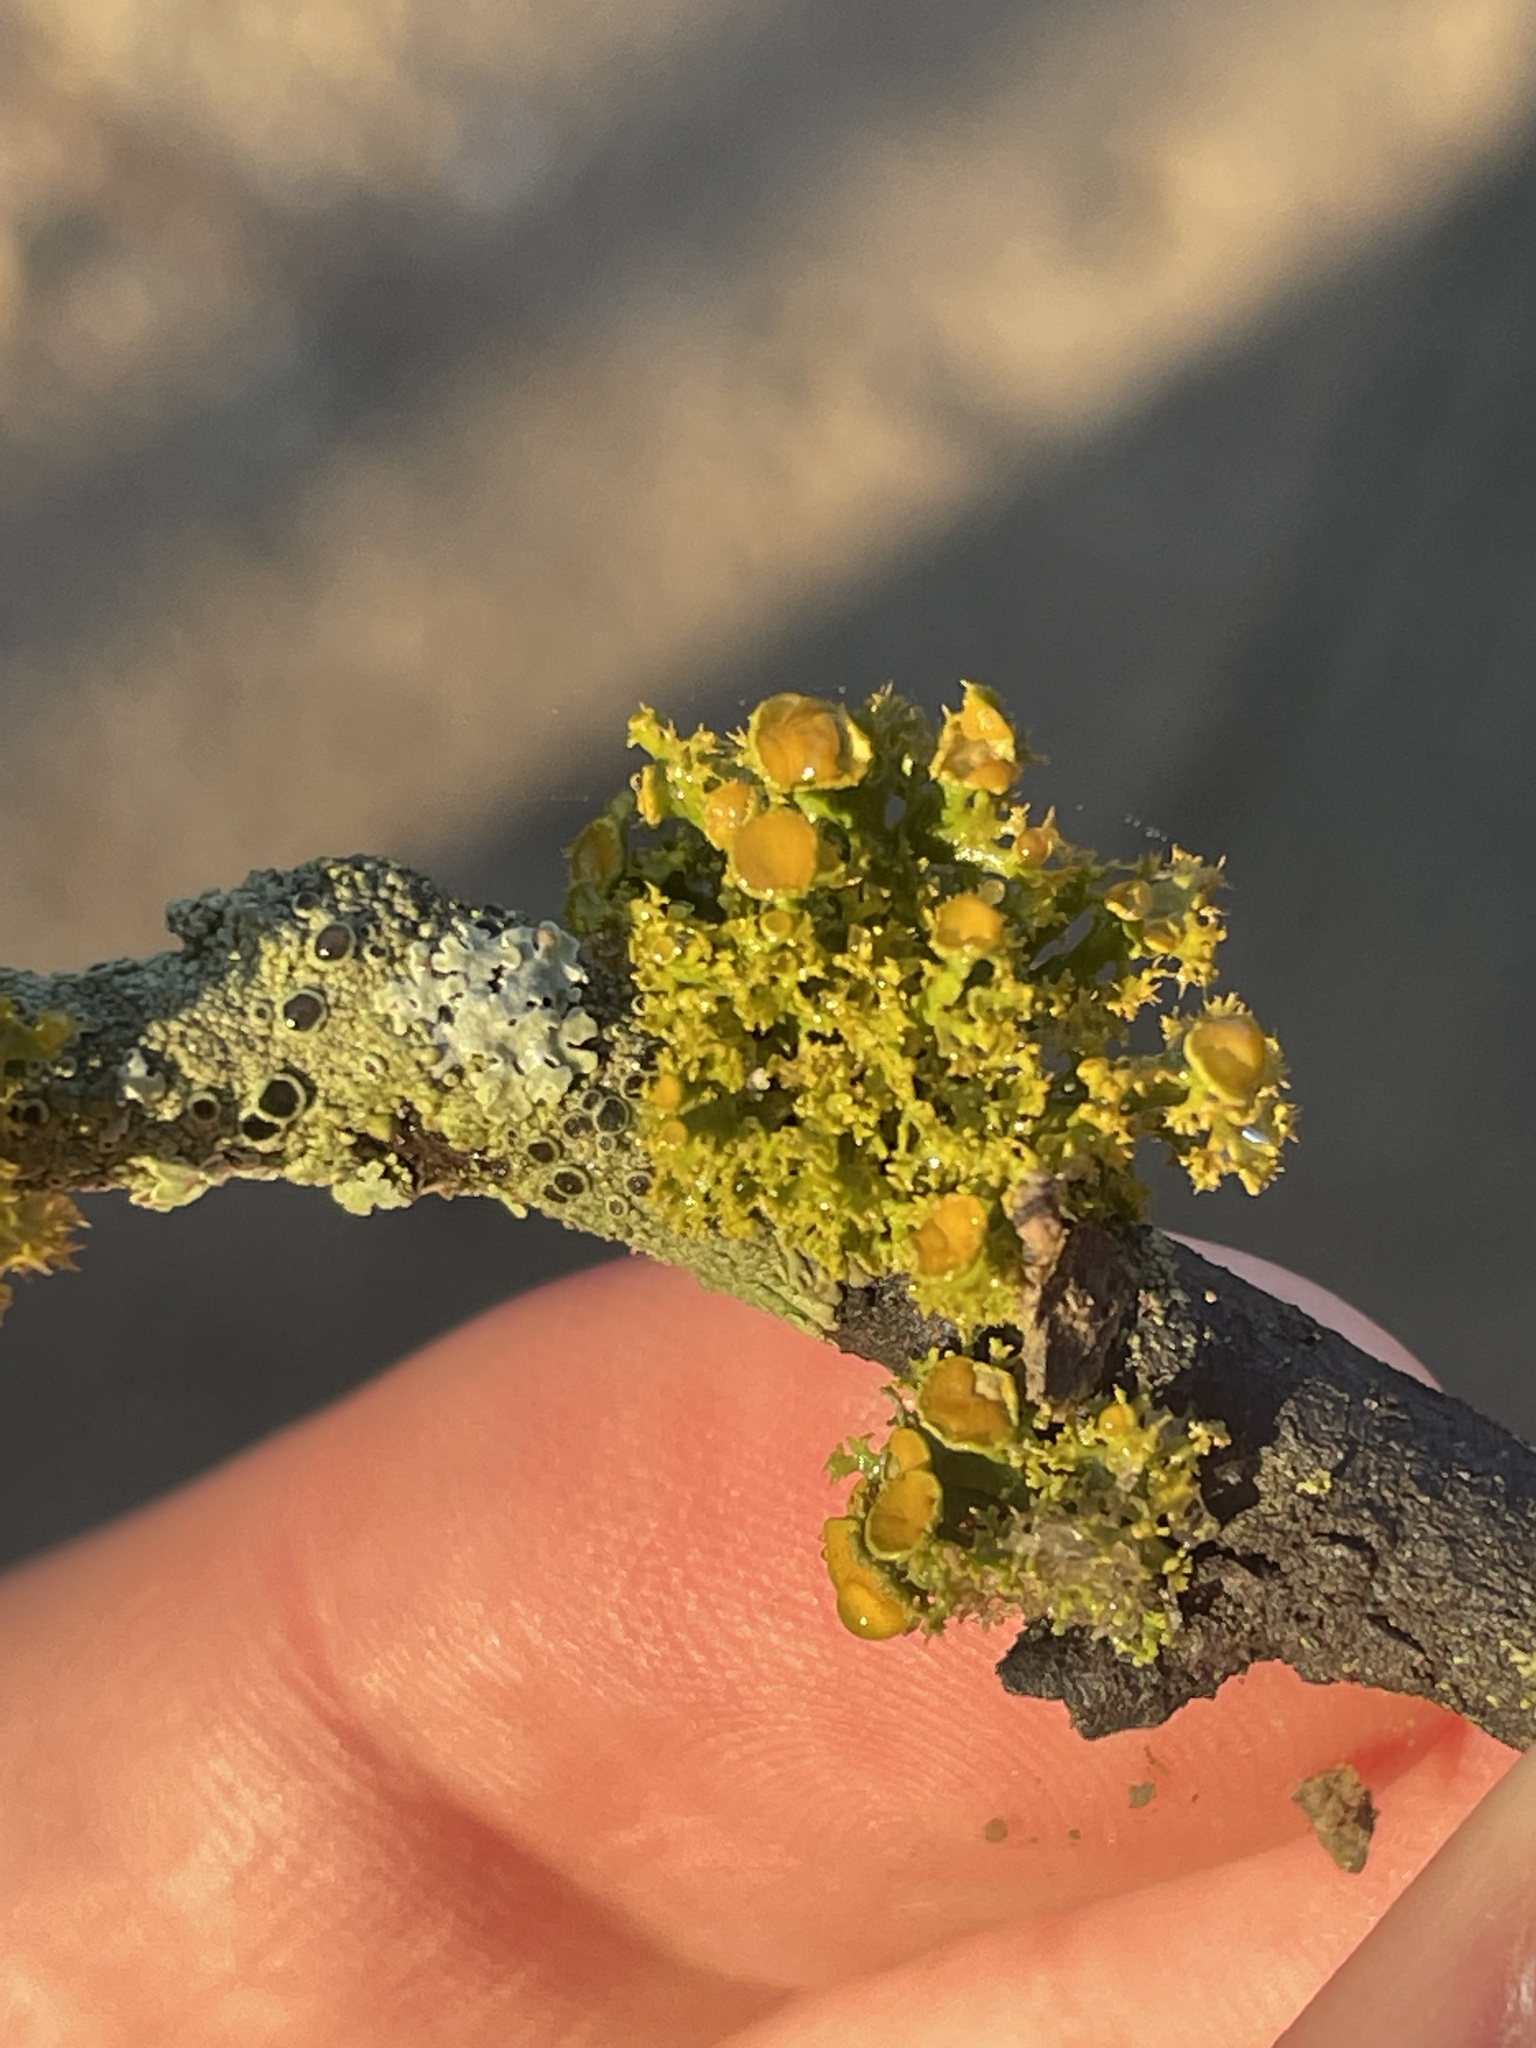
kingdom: Fungi
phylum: Ascomycota
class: Lecanoromycetes
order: Teloschistales
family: Teloschistaceae
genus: Niorma
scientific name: Niorma chrysophthalma
